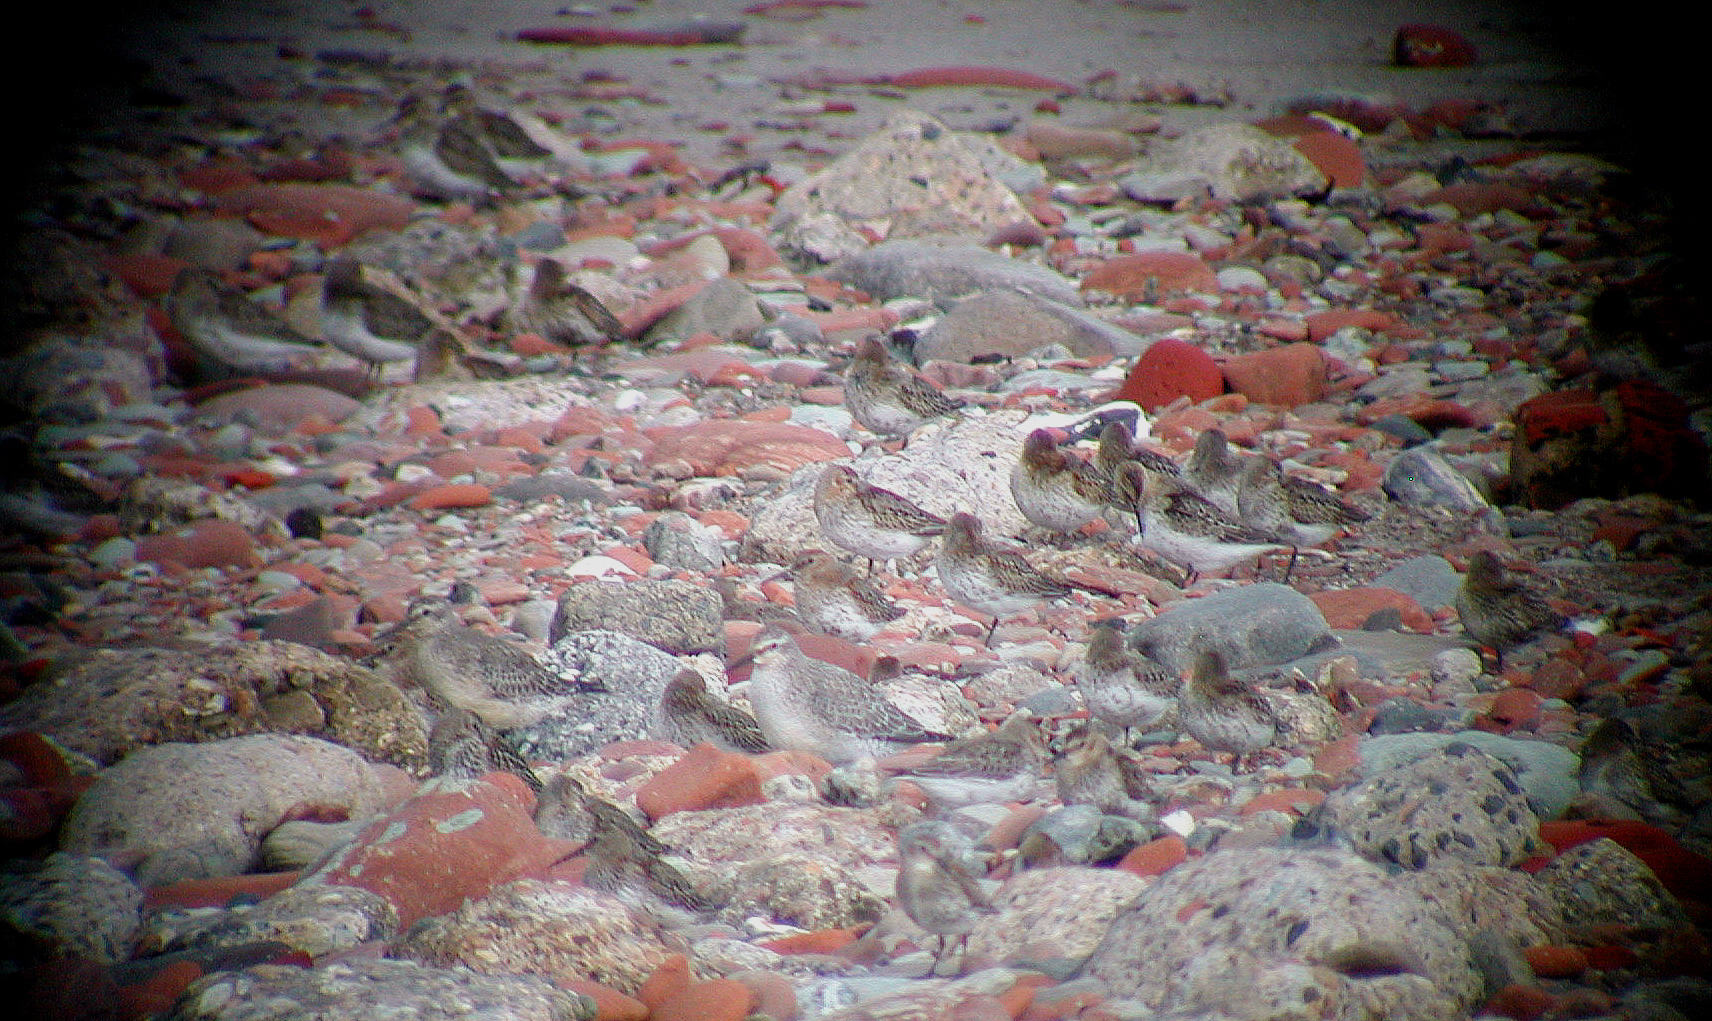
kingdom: Animalia
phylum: Chordata
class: Aves
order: Charadriiformes
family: Scolopacidae
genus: Calidris
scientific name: Calidris canutus
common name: Red knot
